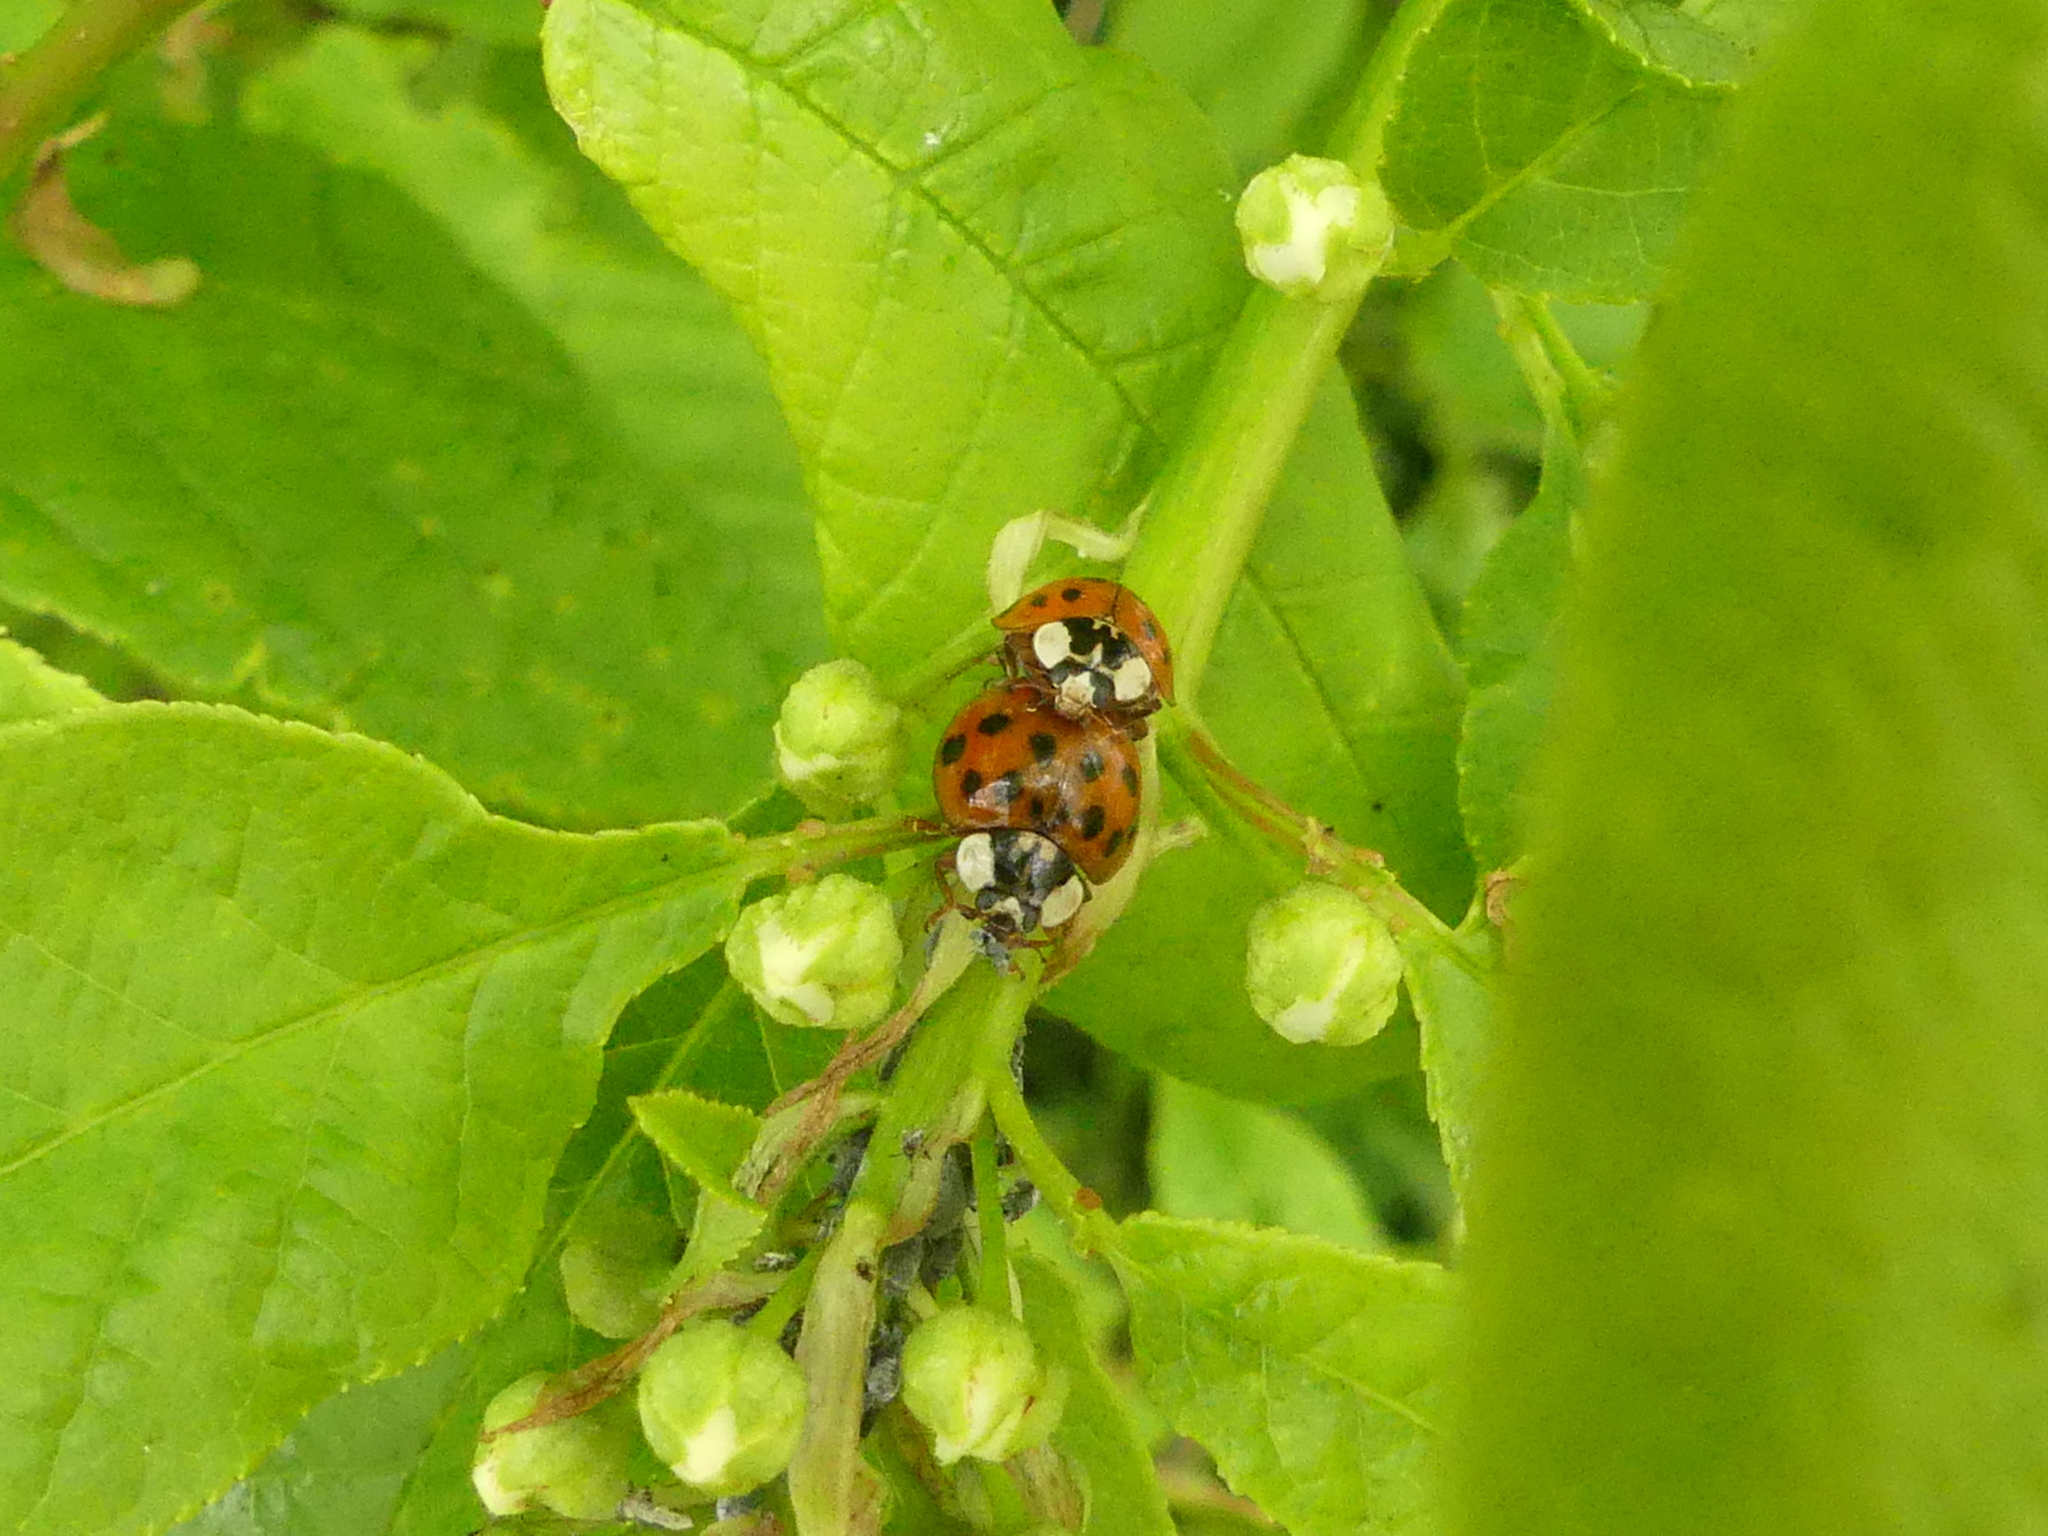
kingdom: Animalia
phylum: Arthropoda
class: Insecta
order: Coleoptera
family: Coccinellidae
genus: Harmonia
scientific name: Harmonia axyridis
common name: Harlequin ladybird
